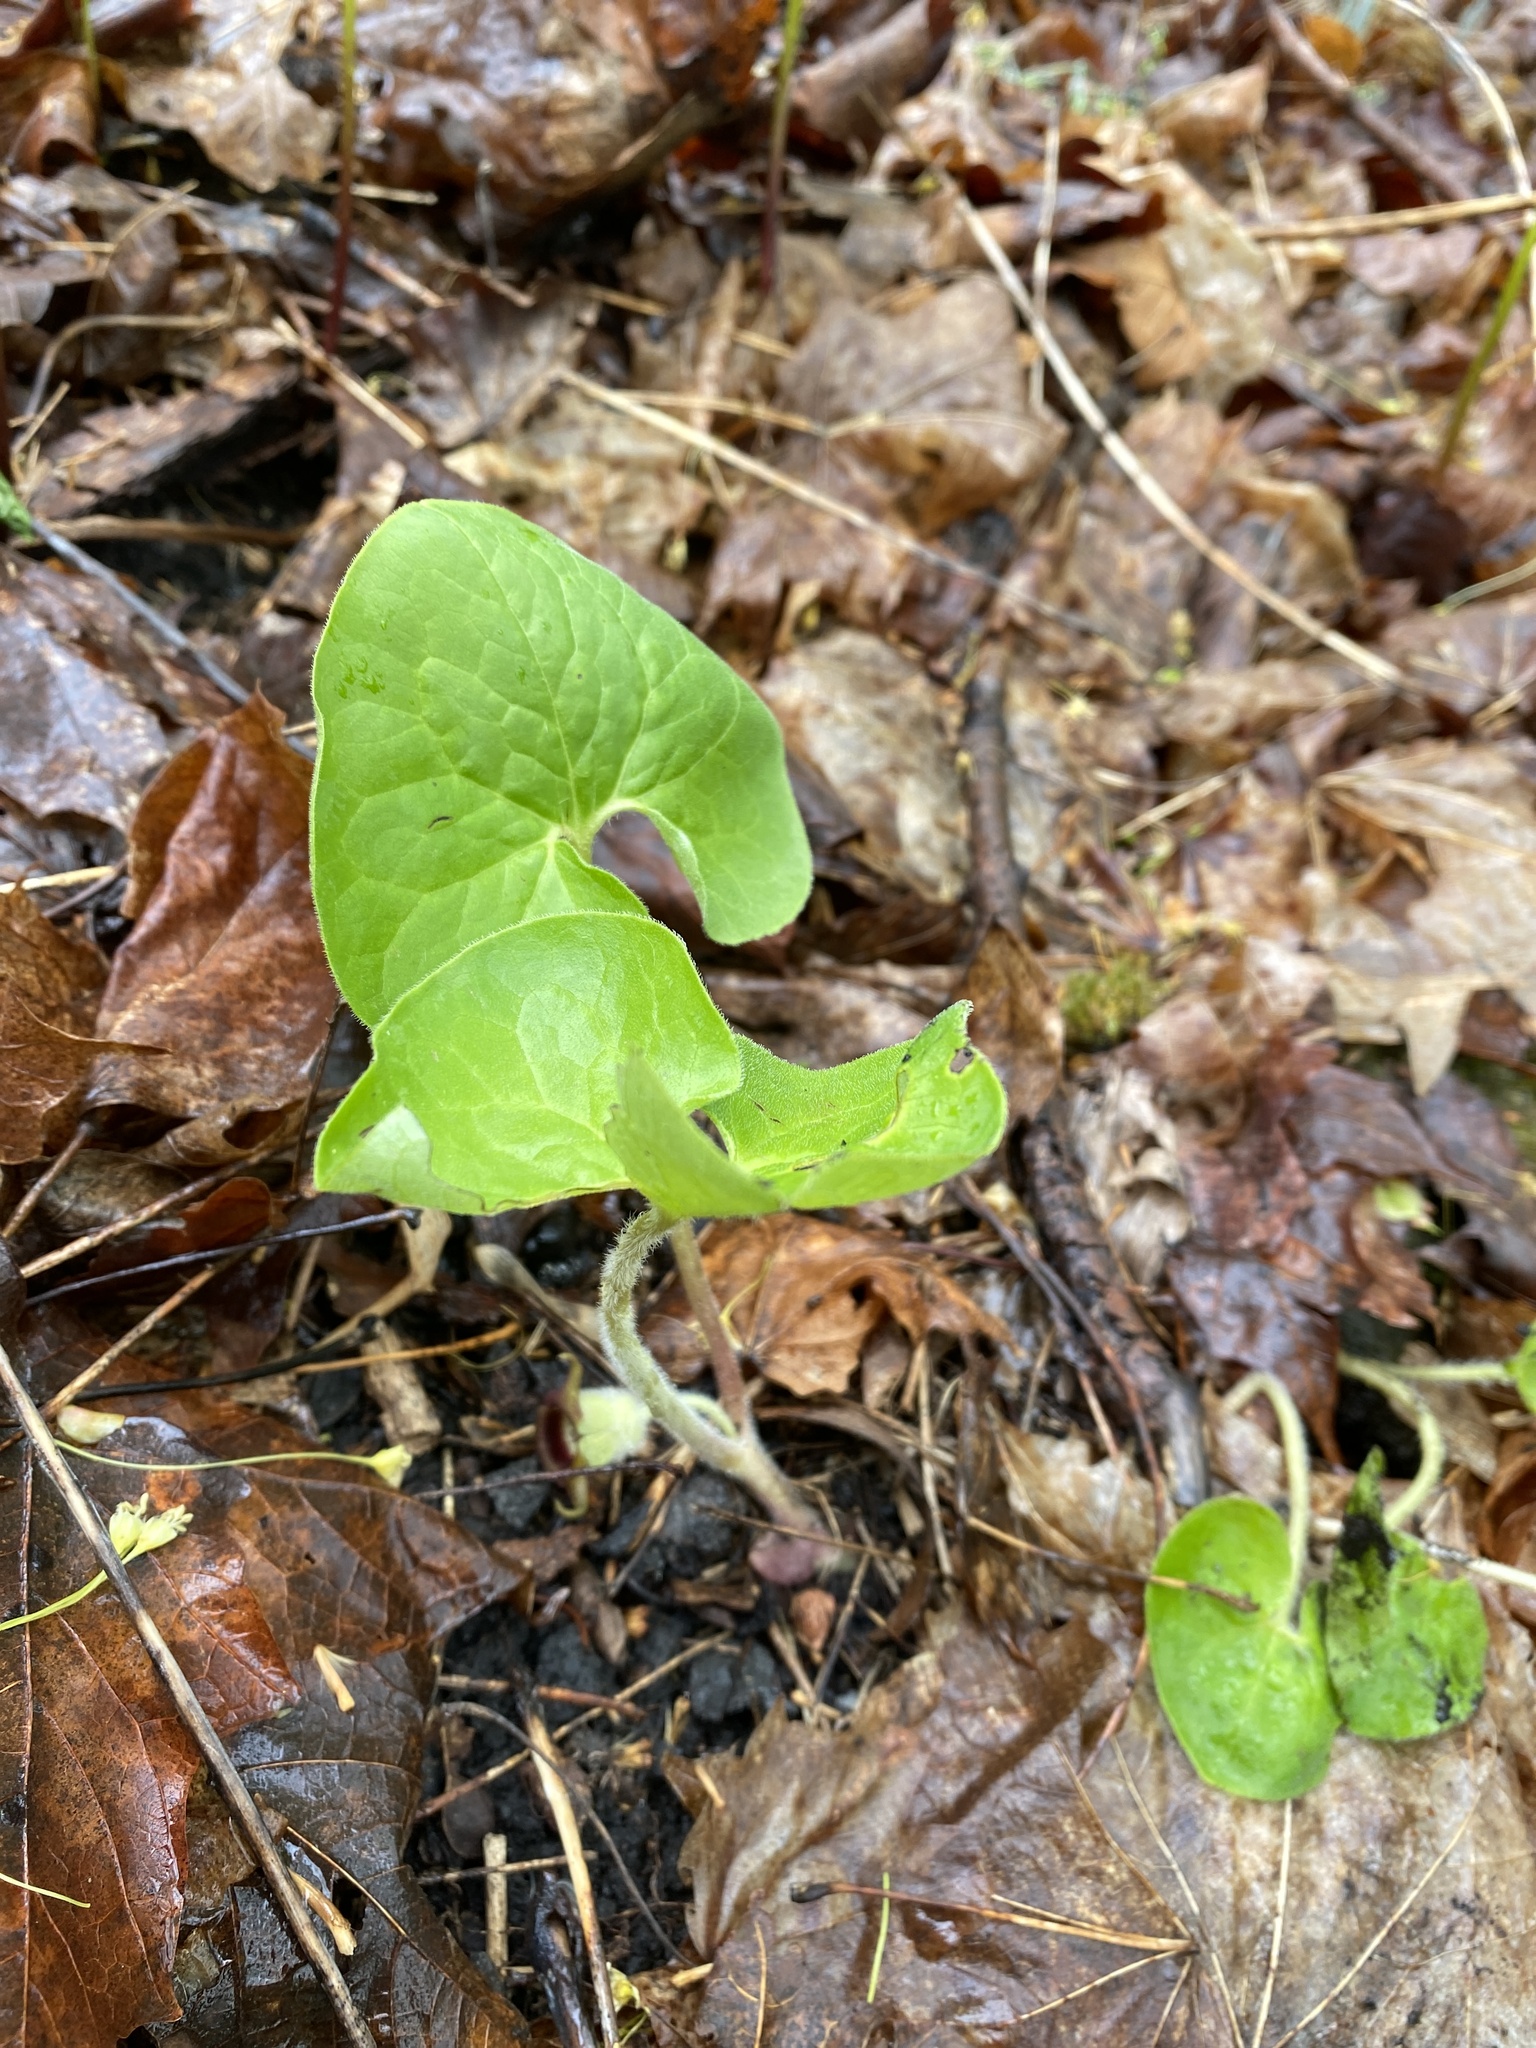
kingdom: Plantae
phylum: Tracheophyta
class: Magnoliopsida
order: Piperales
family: Aristolochiaceae
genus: Asarum
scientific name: Asarum canadense
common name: Wild ginger
